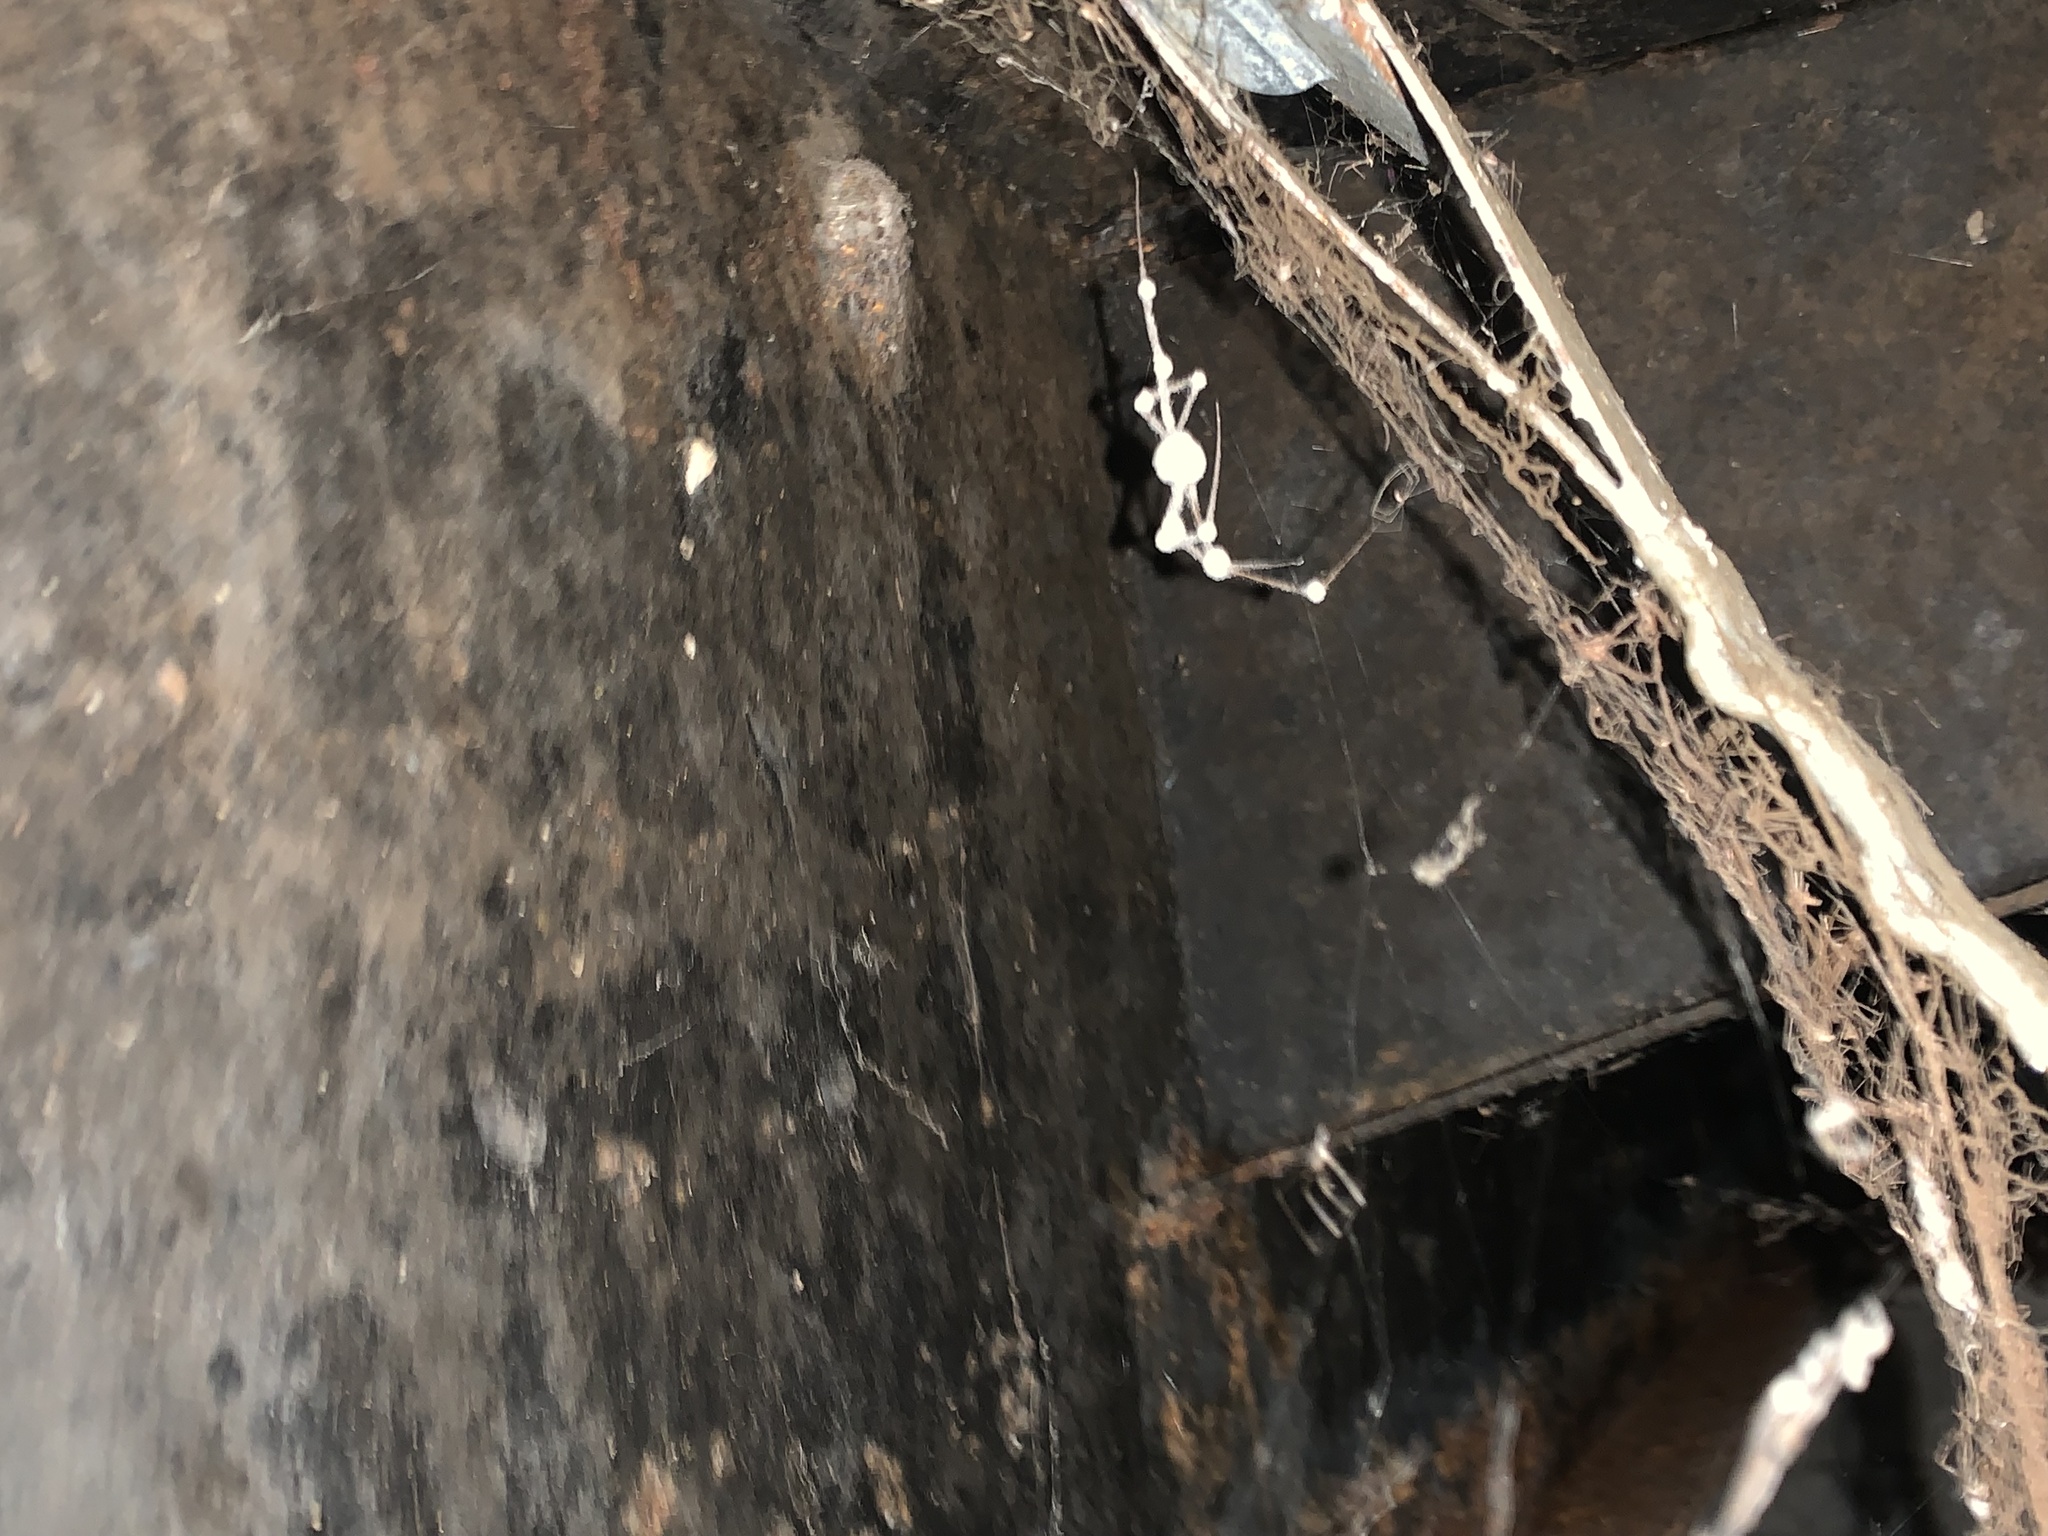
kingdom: Fungi
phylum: Ascomycota
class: Sordariomycetes
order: Hypocreales
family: Cordycipitaceae
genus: Lecanicillium
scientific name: Lecanicillium tenuipes
